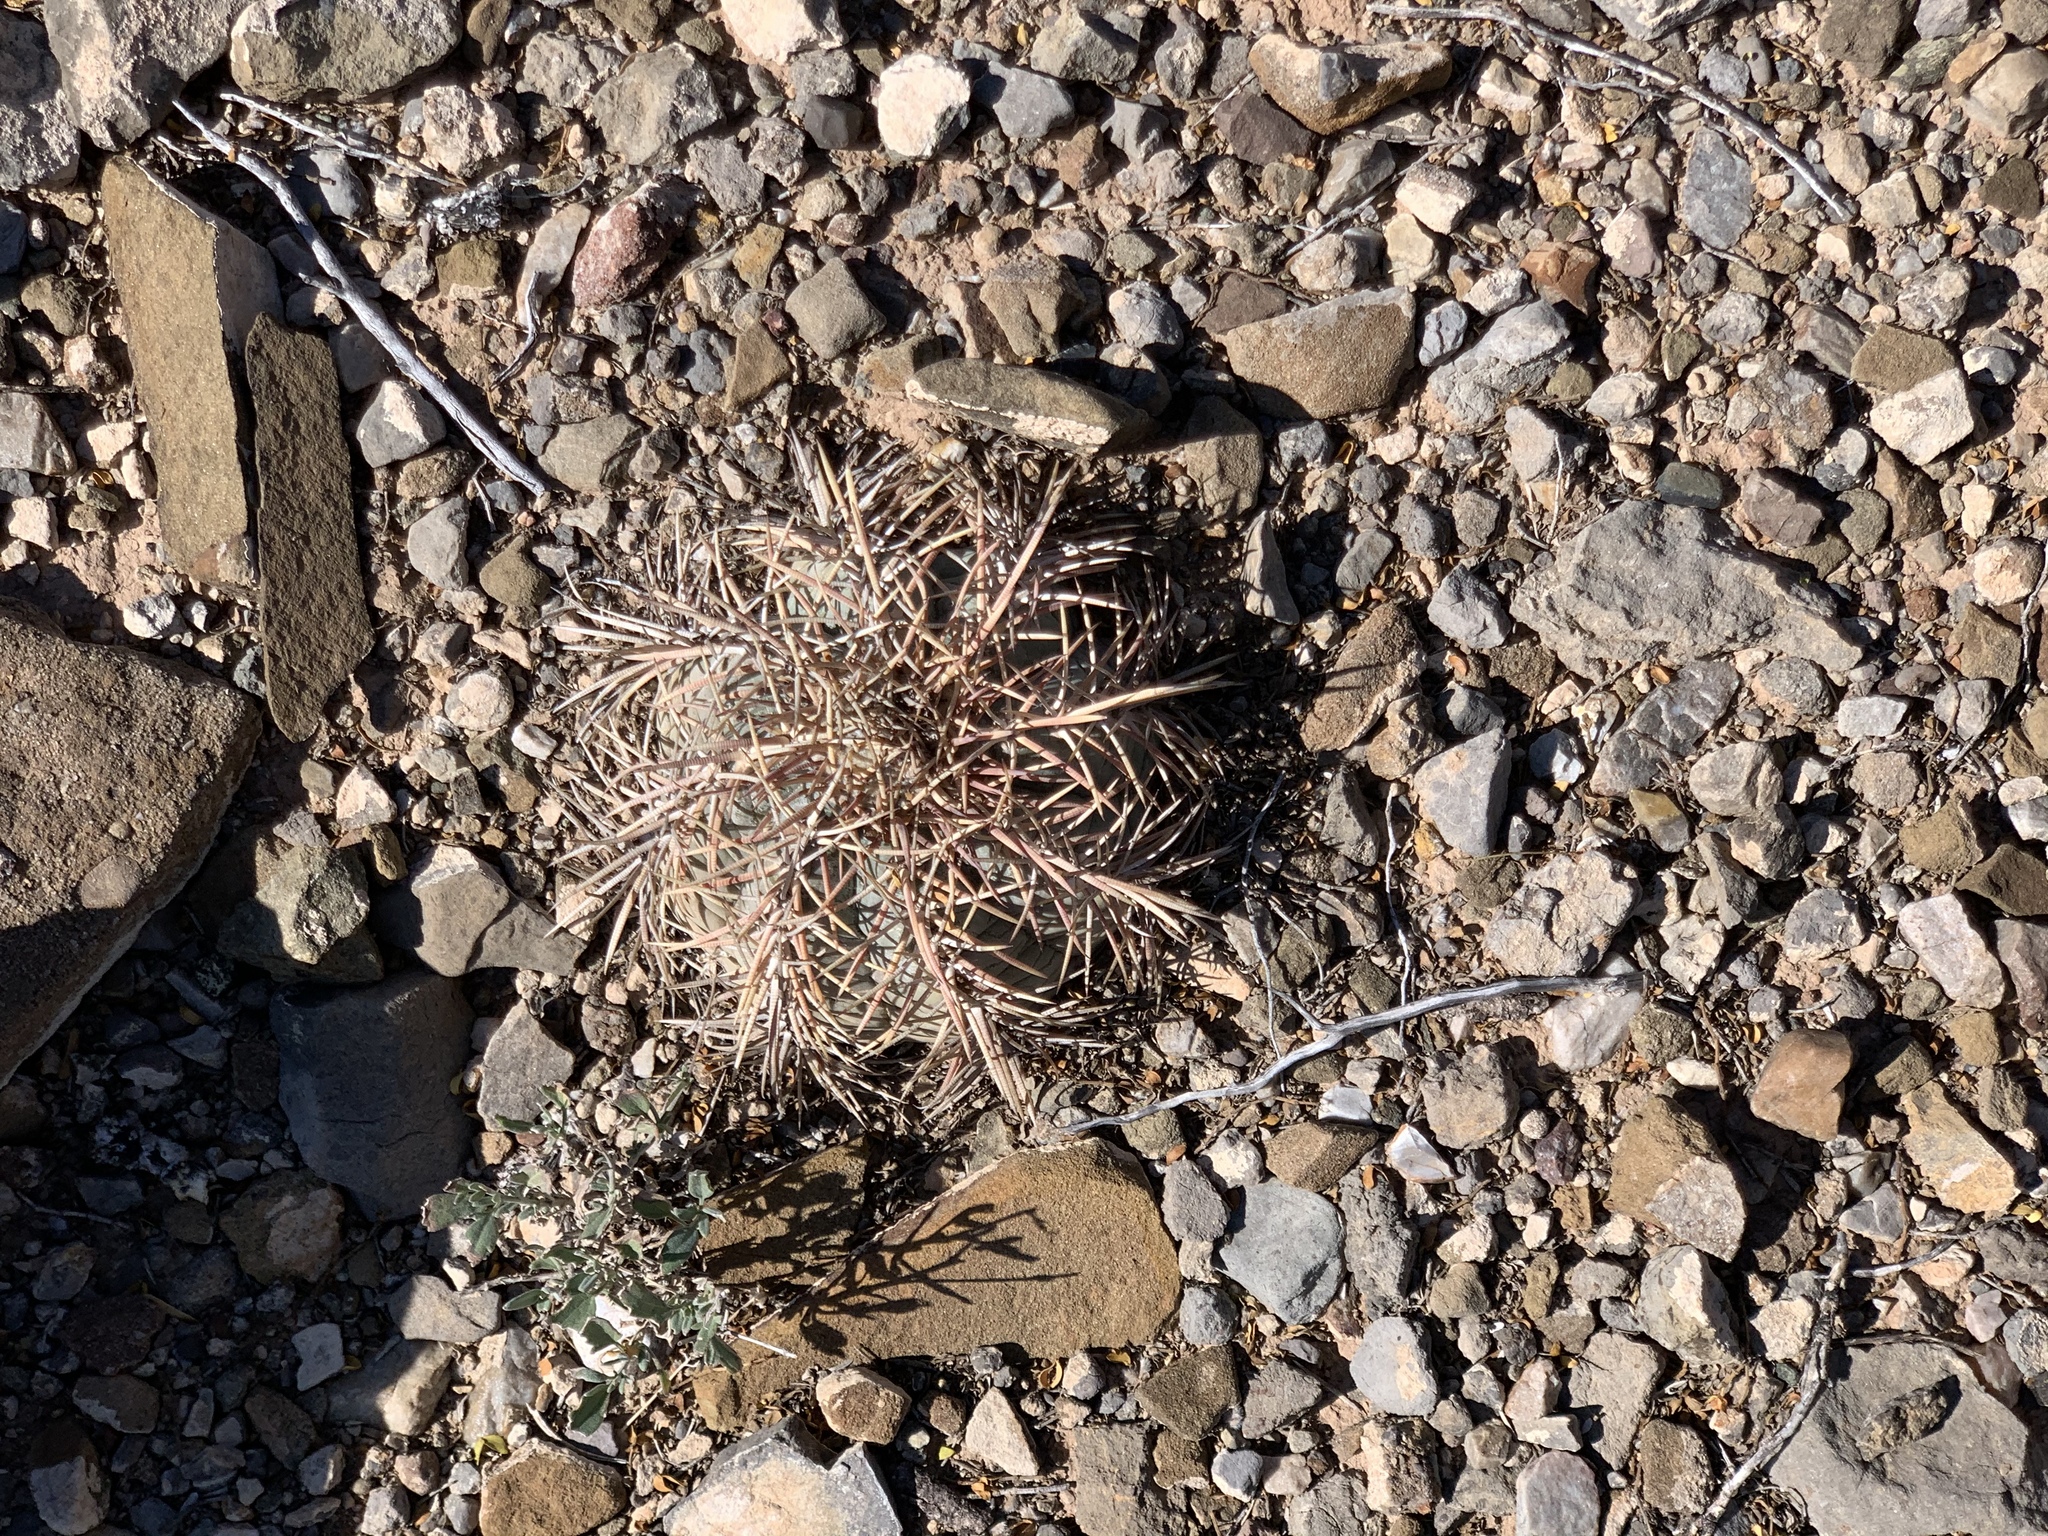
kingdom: Plantae
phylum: Tracheophyta
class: Magnoliopsida
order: Caryophyllales
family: Cactaceae
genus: Echinocactus
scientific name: Echinocactus horizonthalonius
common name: Devilshead
